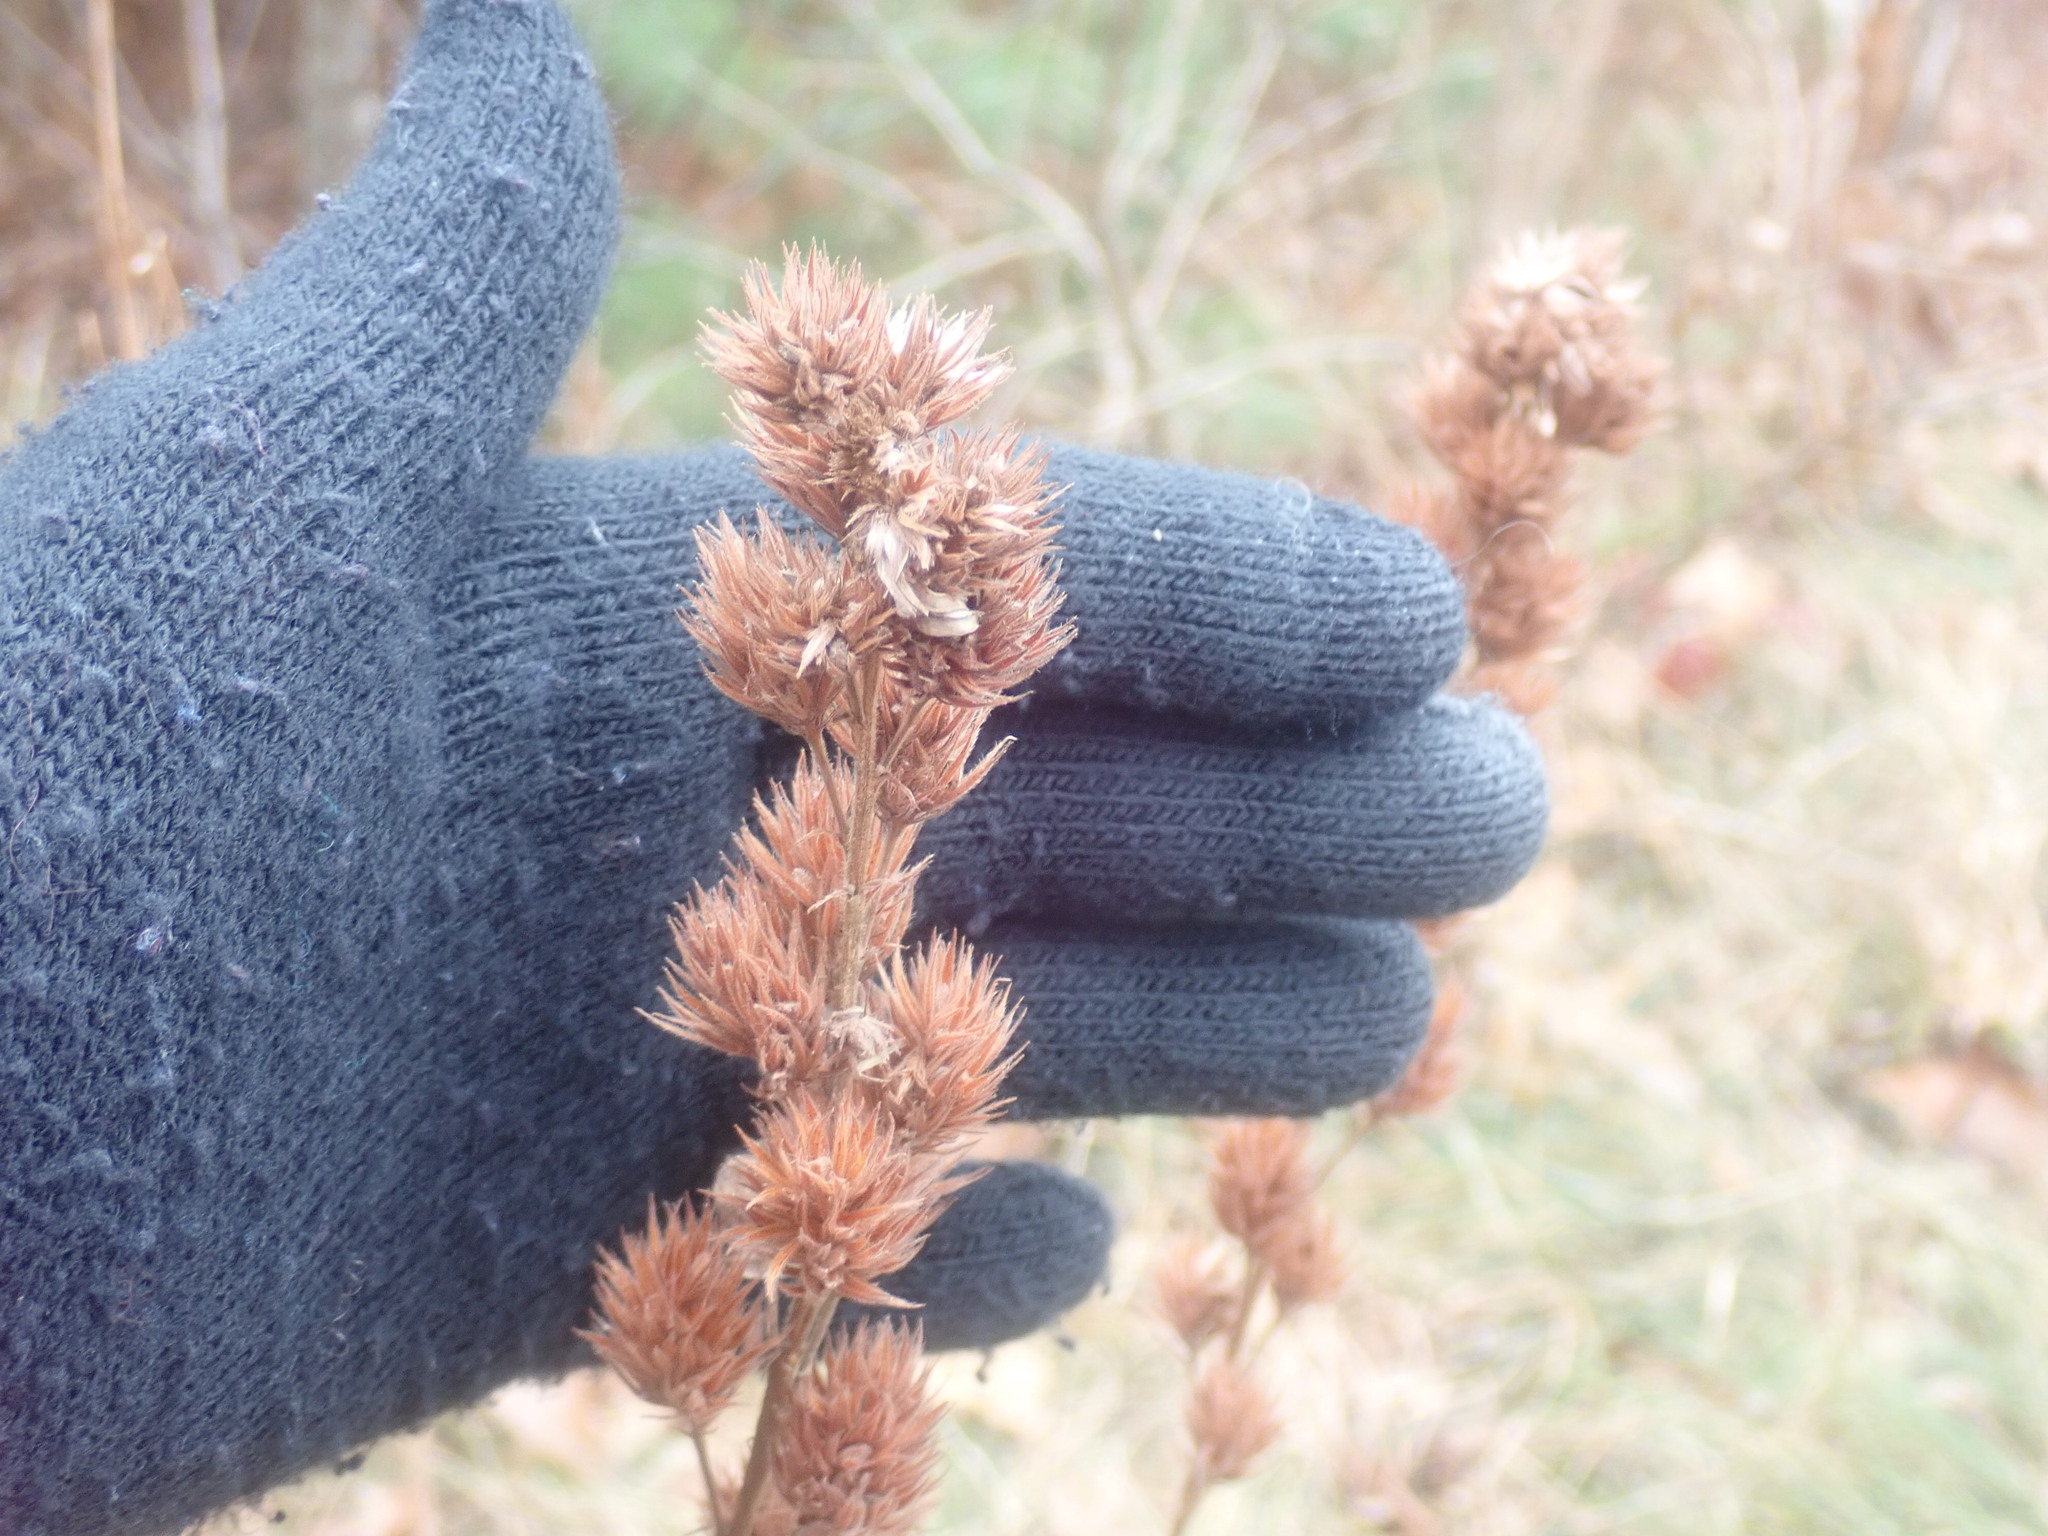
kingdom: Plantae
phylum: Tracheophyta
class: Magnoliopsida
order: Fabales
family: Fabaceae
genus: Lespedeza
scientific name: Lespedeza capitata
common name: Dusty clover
